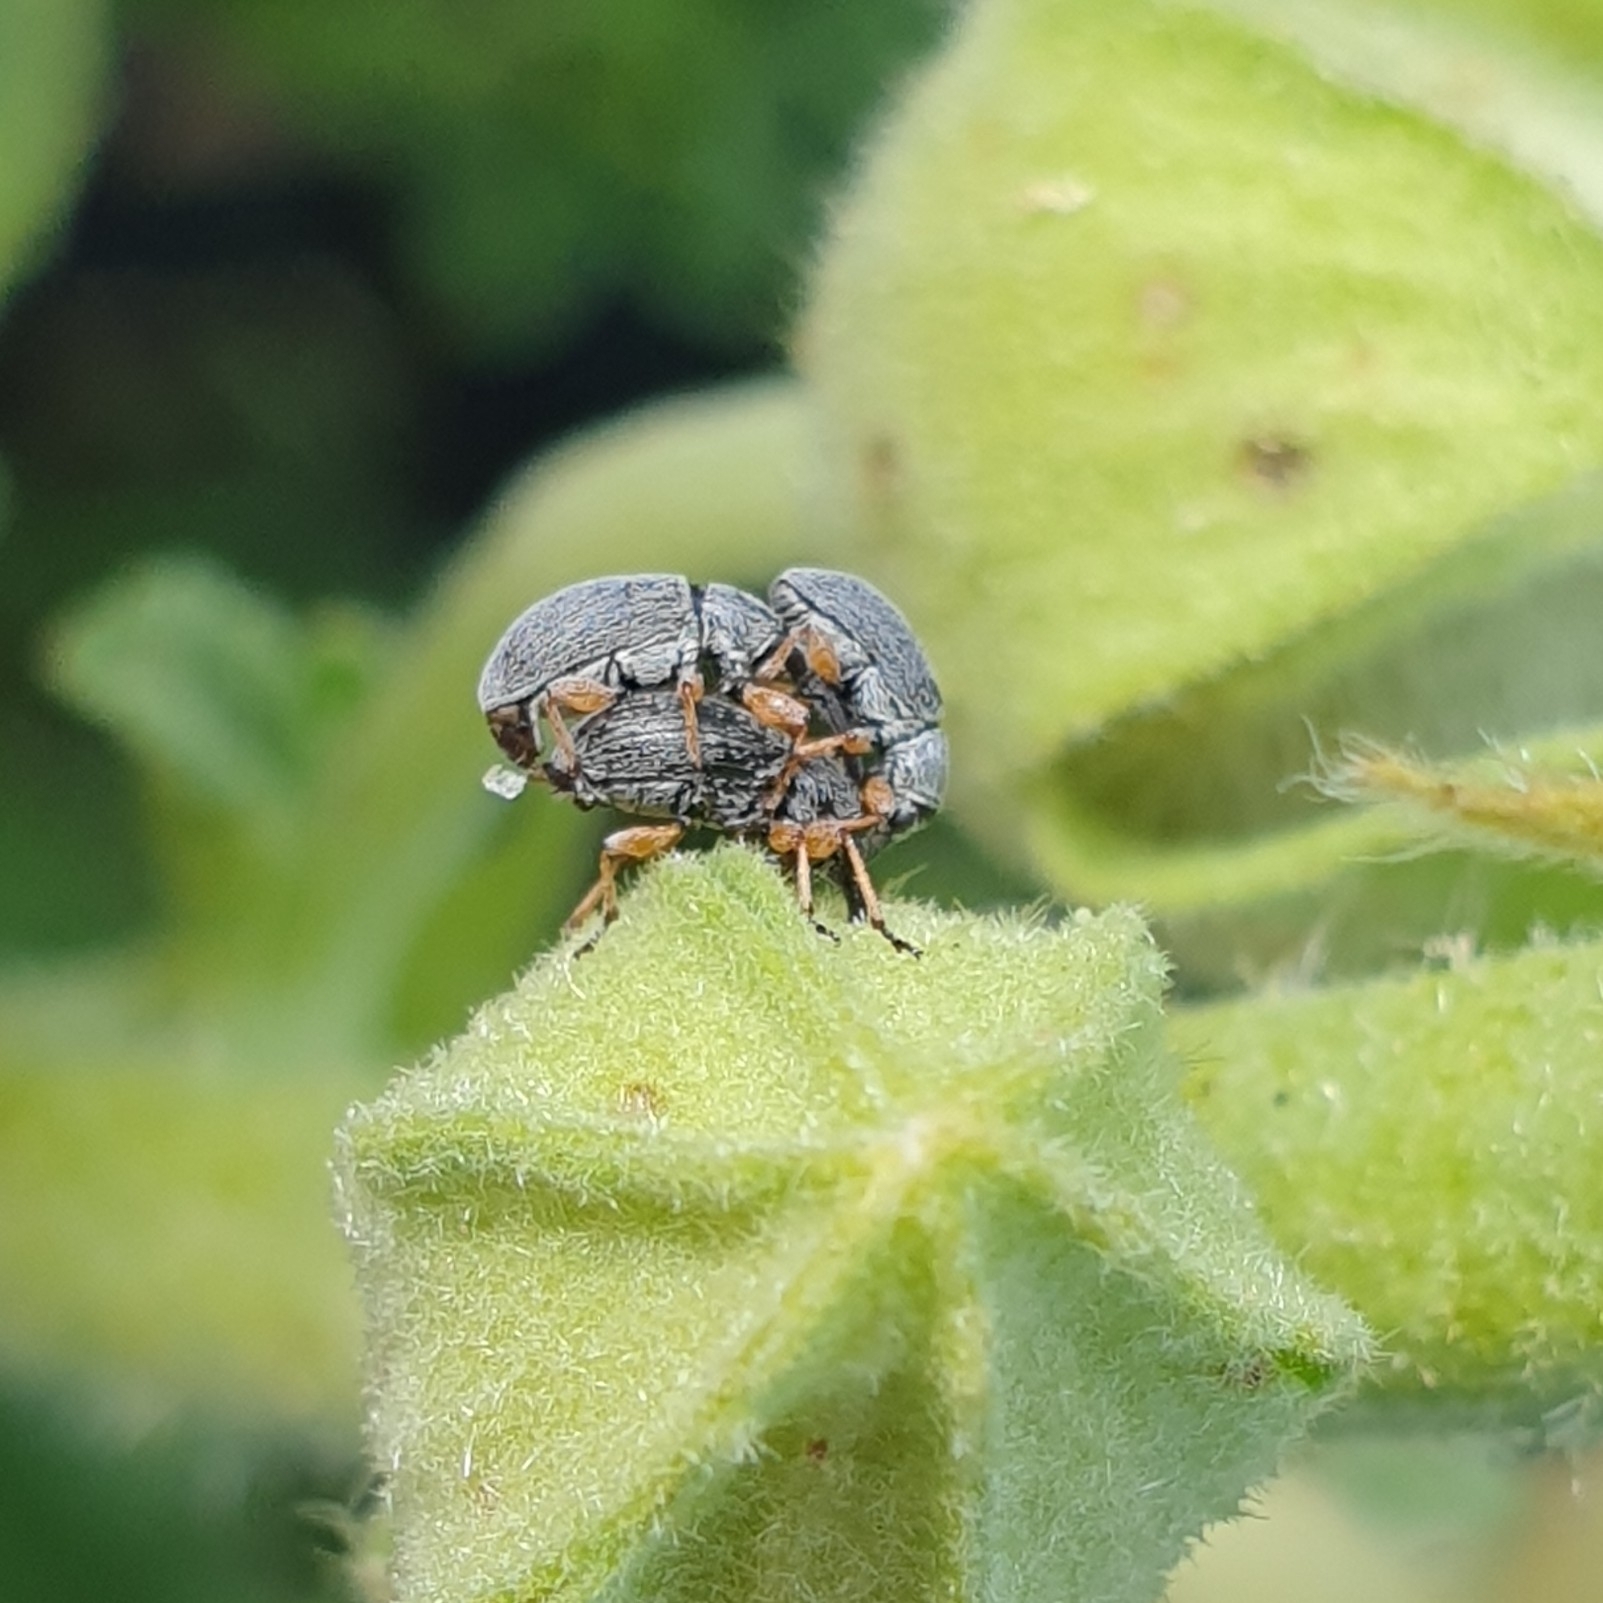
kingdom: Animalia
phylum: Arthropoda
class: Insecta
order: Coleoptera
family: Brentidae
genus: Rhopalapion
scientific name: Rhopalapion longirostre
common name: Hollyhock weevil
